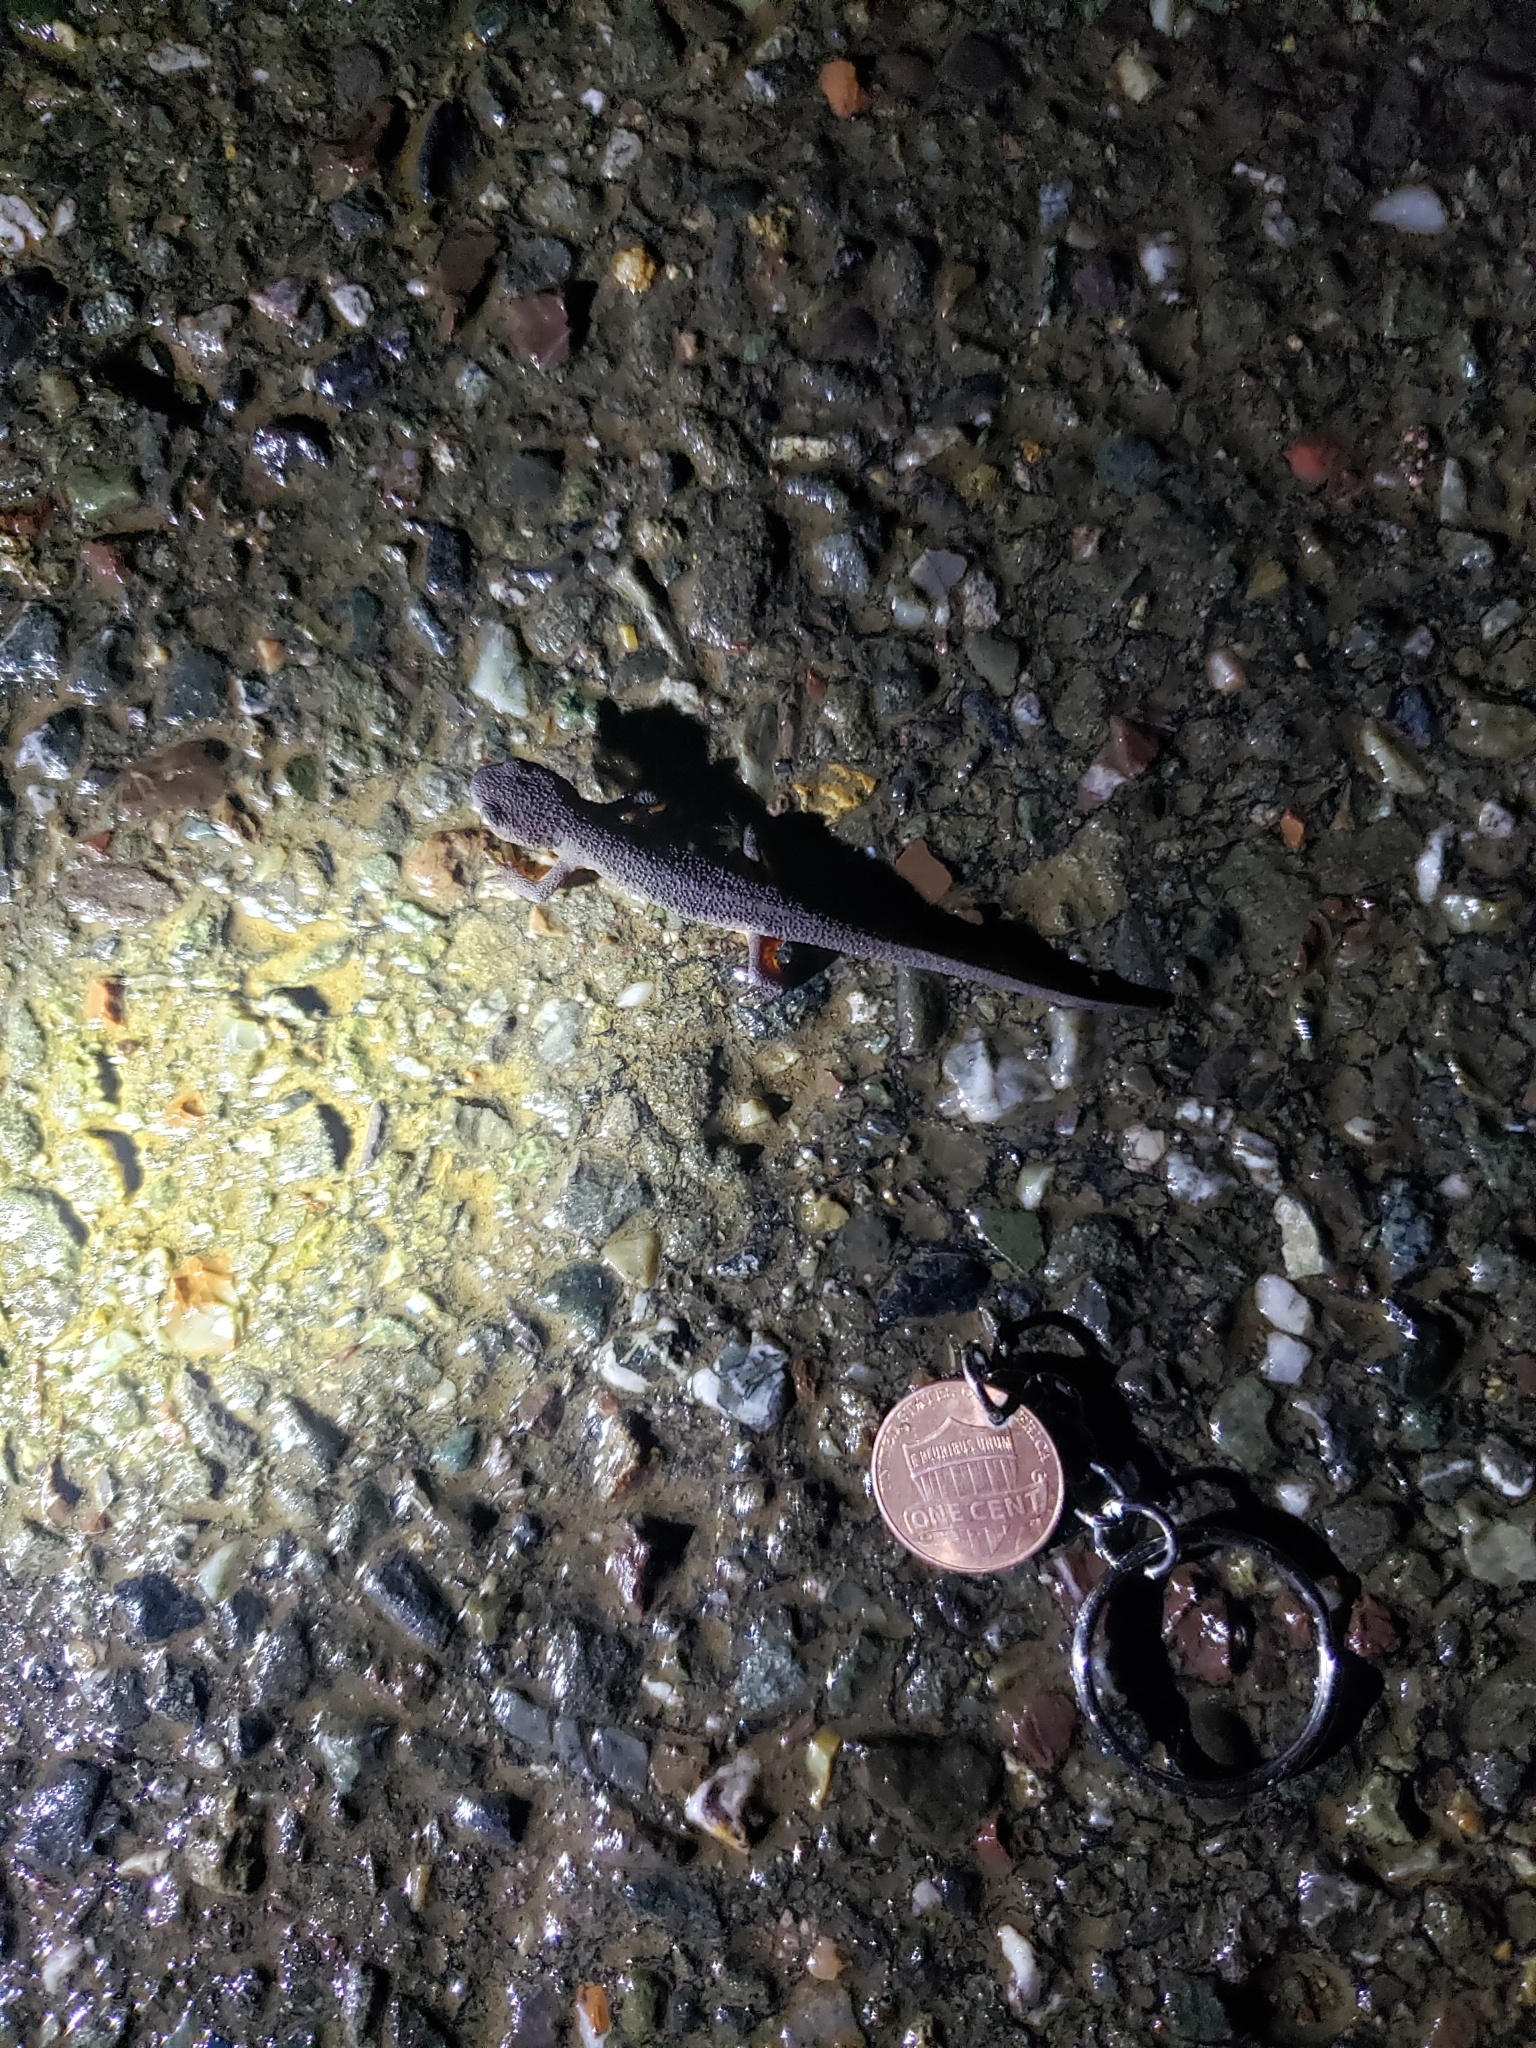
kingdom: Animalia
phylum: Chordata
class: Amphibia
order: Caudata
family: Salamandridae
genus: Taricha
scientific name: Taricha granulosa
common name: Roughskin newt
